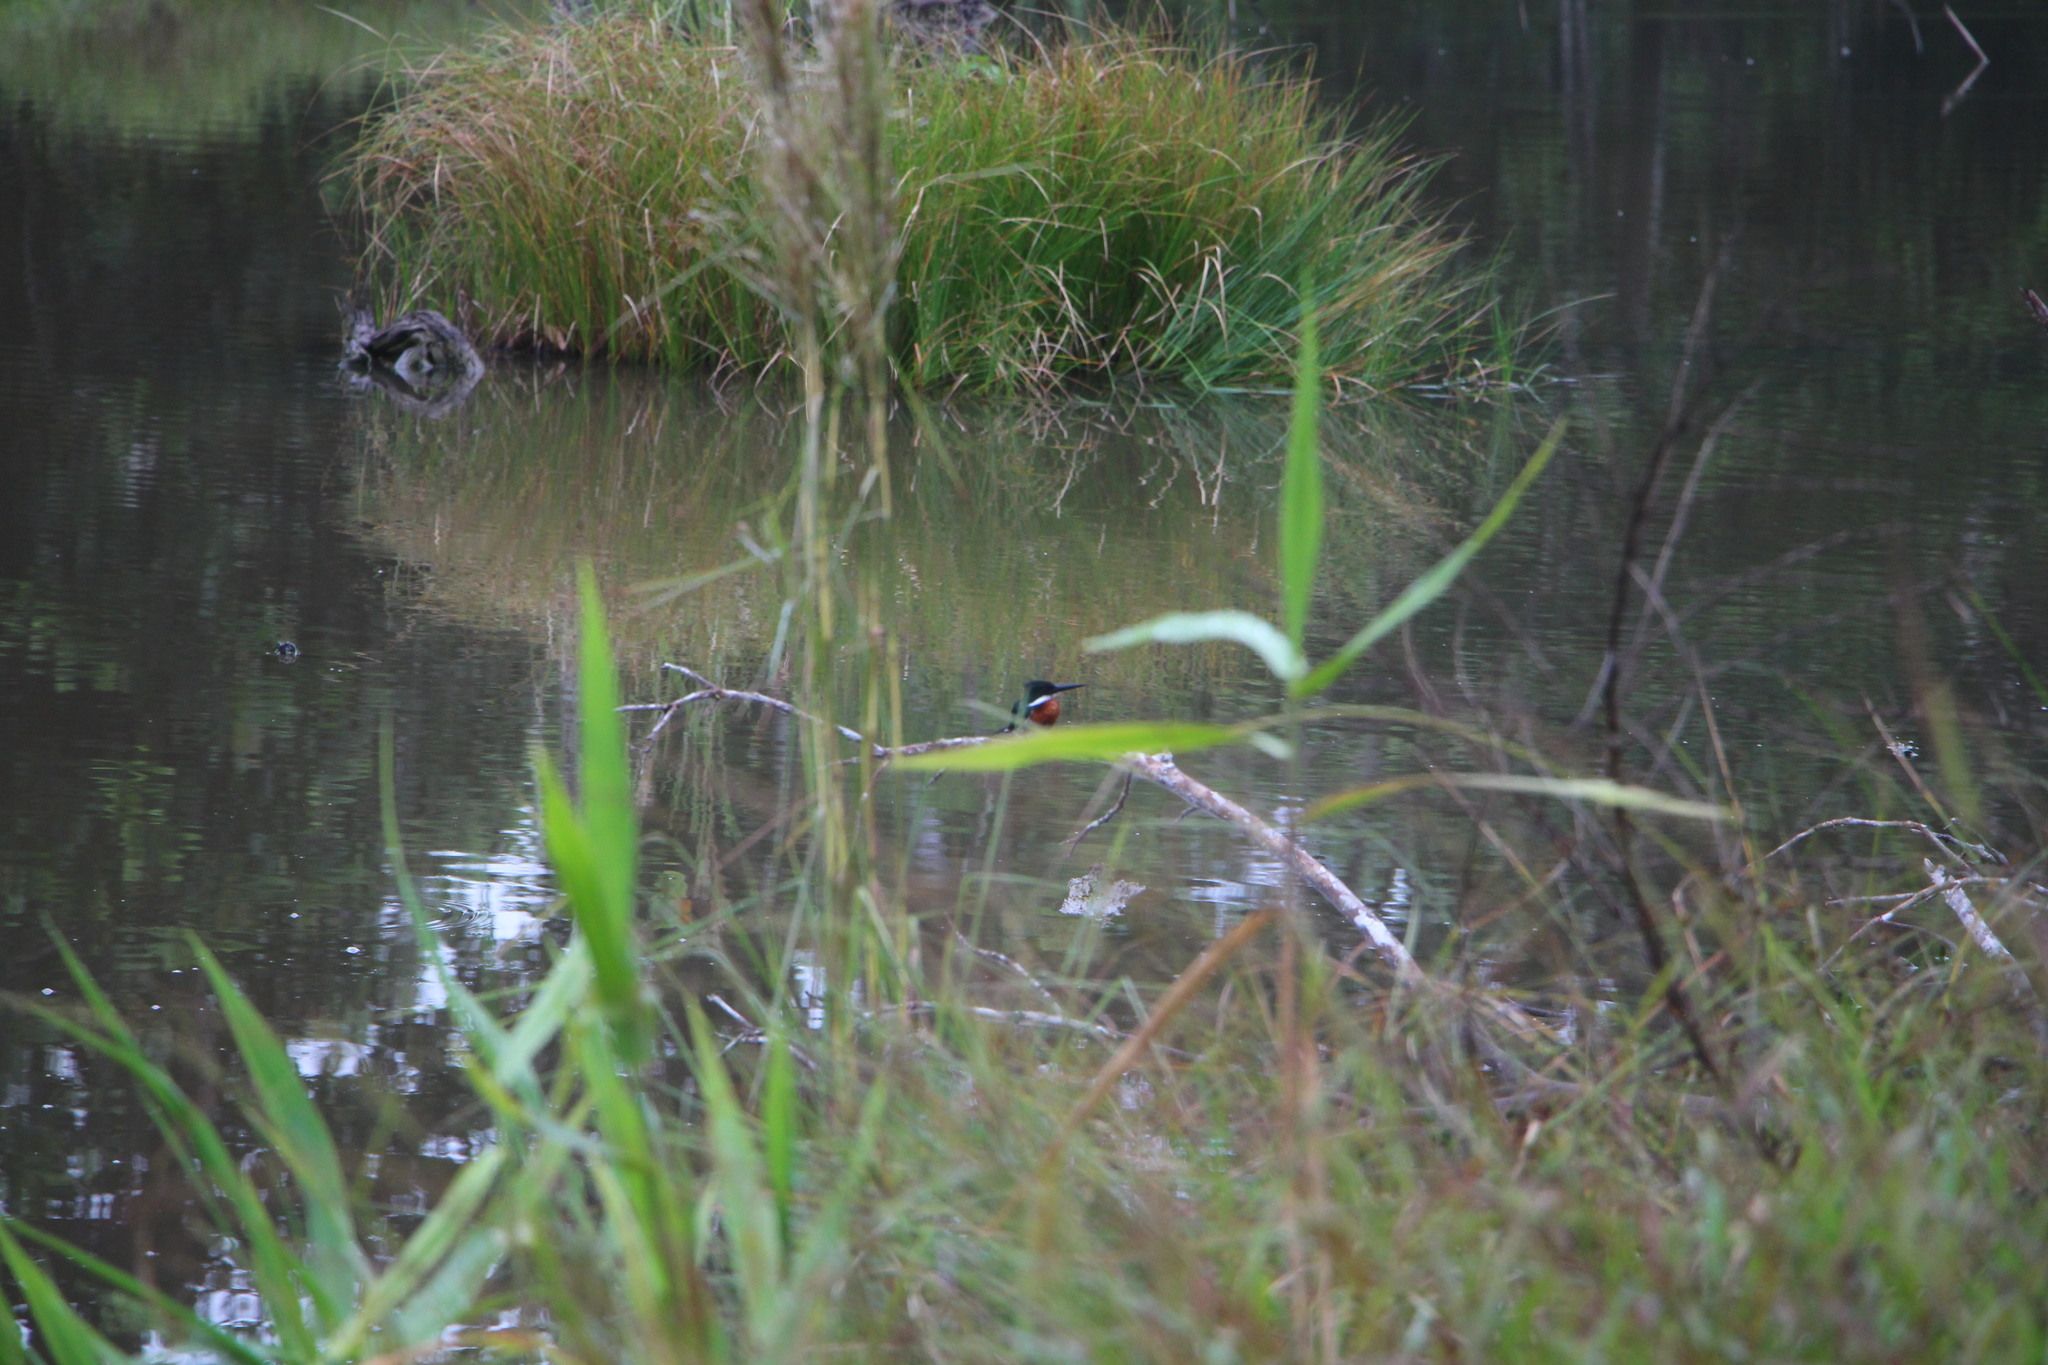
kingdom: Animalia
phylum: Chordata
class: Aves
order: Coraciiformes
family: Alcedinidae
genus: Chloroceryle
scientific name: Chloroceryle americana
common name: Green kingfisher
